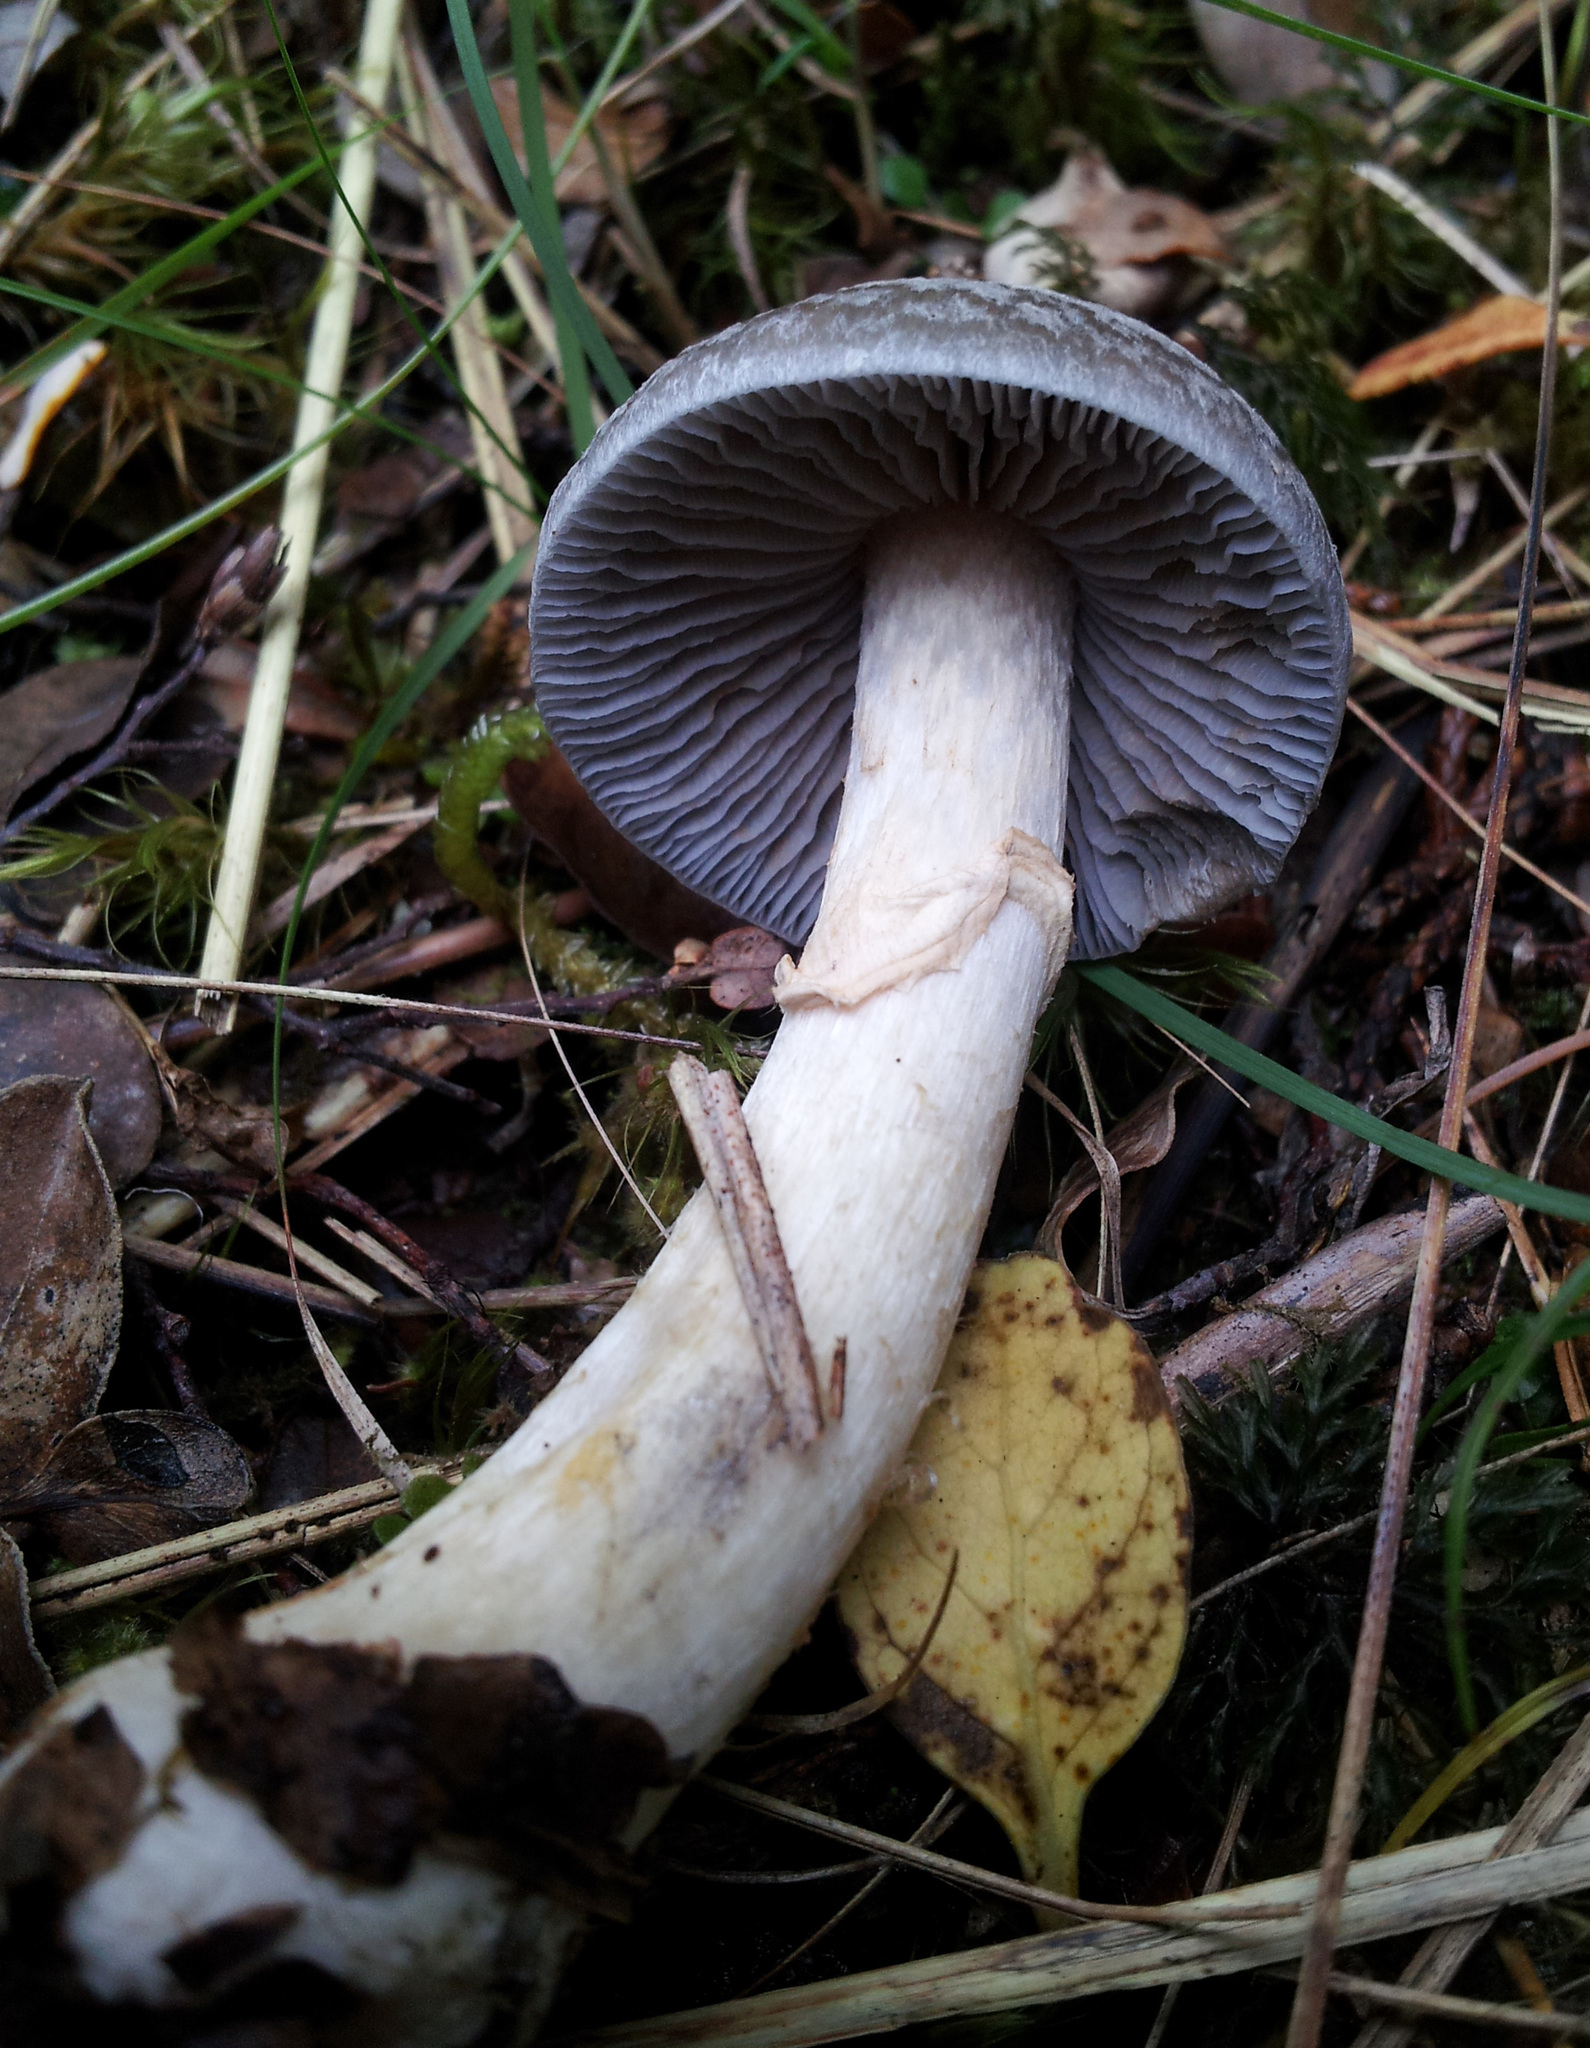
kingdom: Fungi
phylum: Basidiomycota
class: Agaricomycetes
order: Agaricales
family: Cortinariaceae
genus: Cortinarius
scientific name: Cortinarius meleagris
